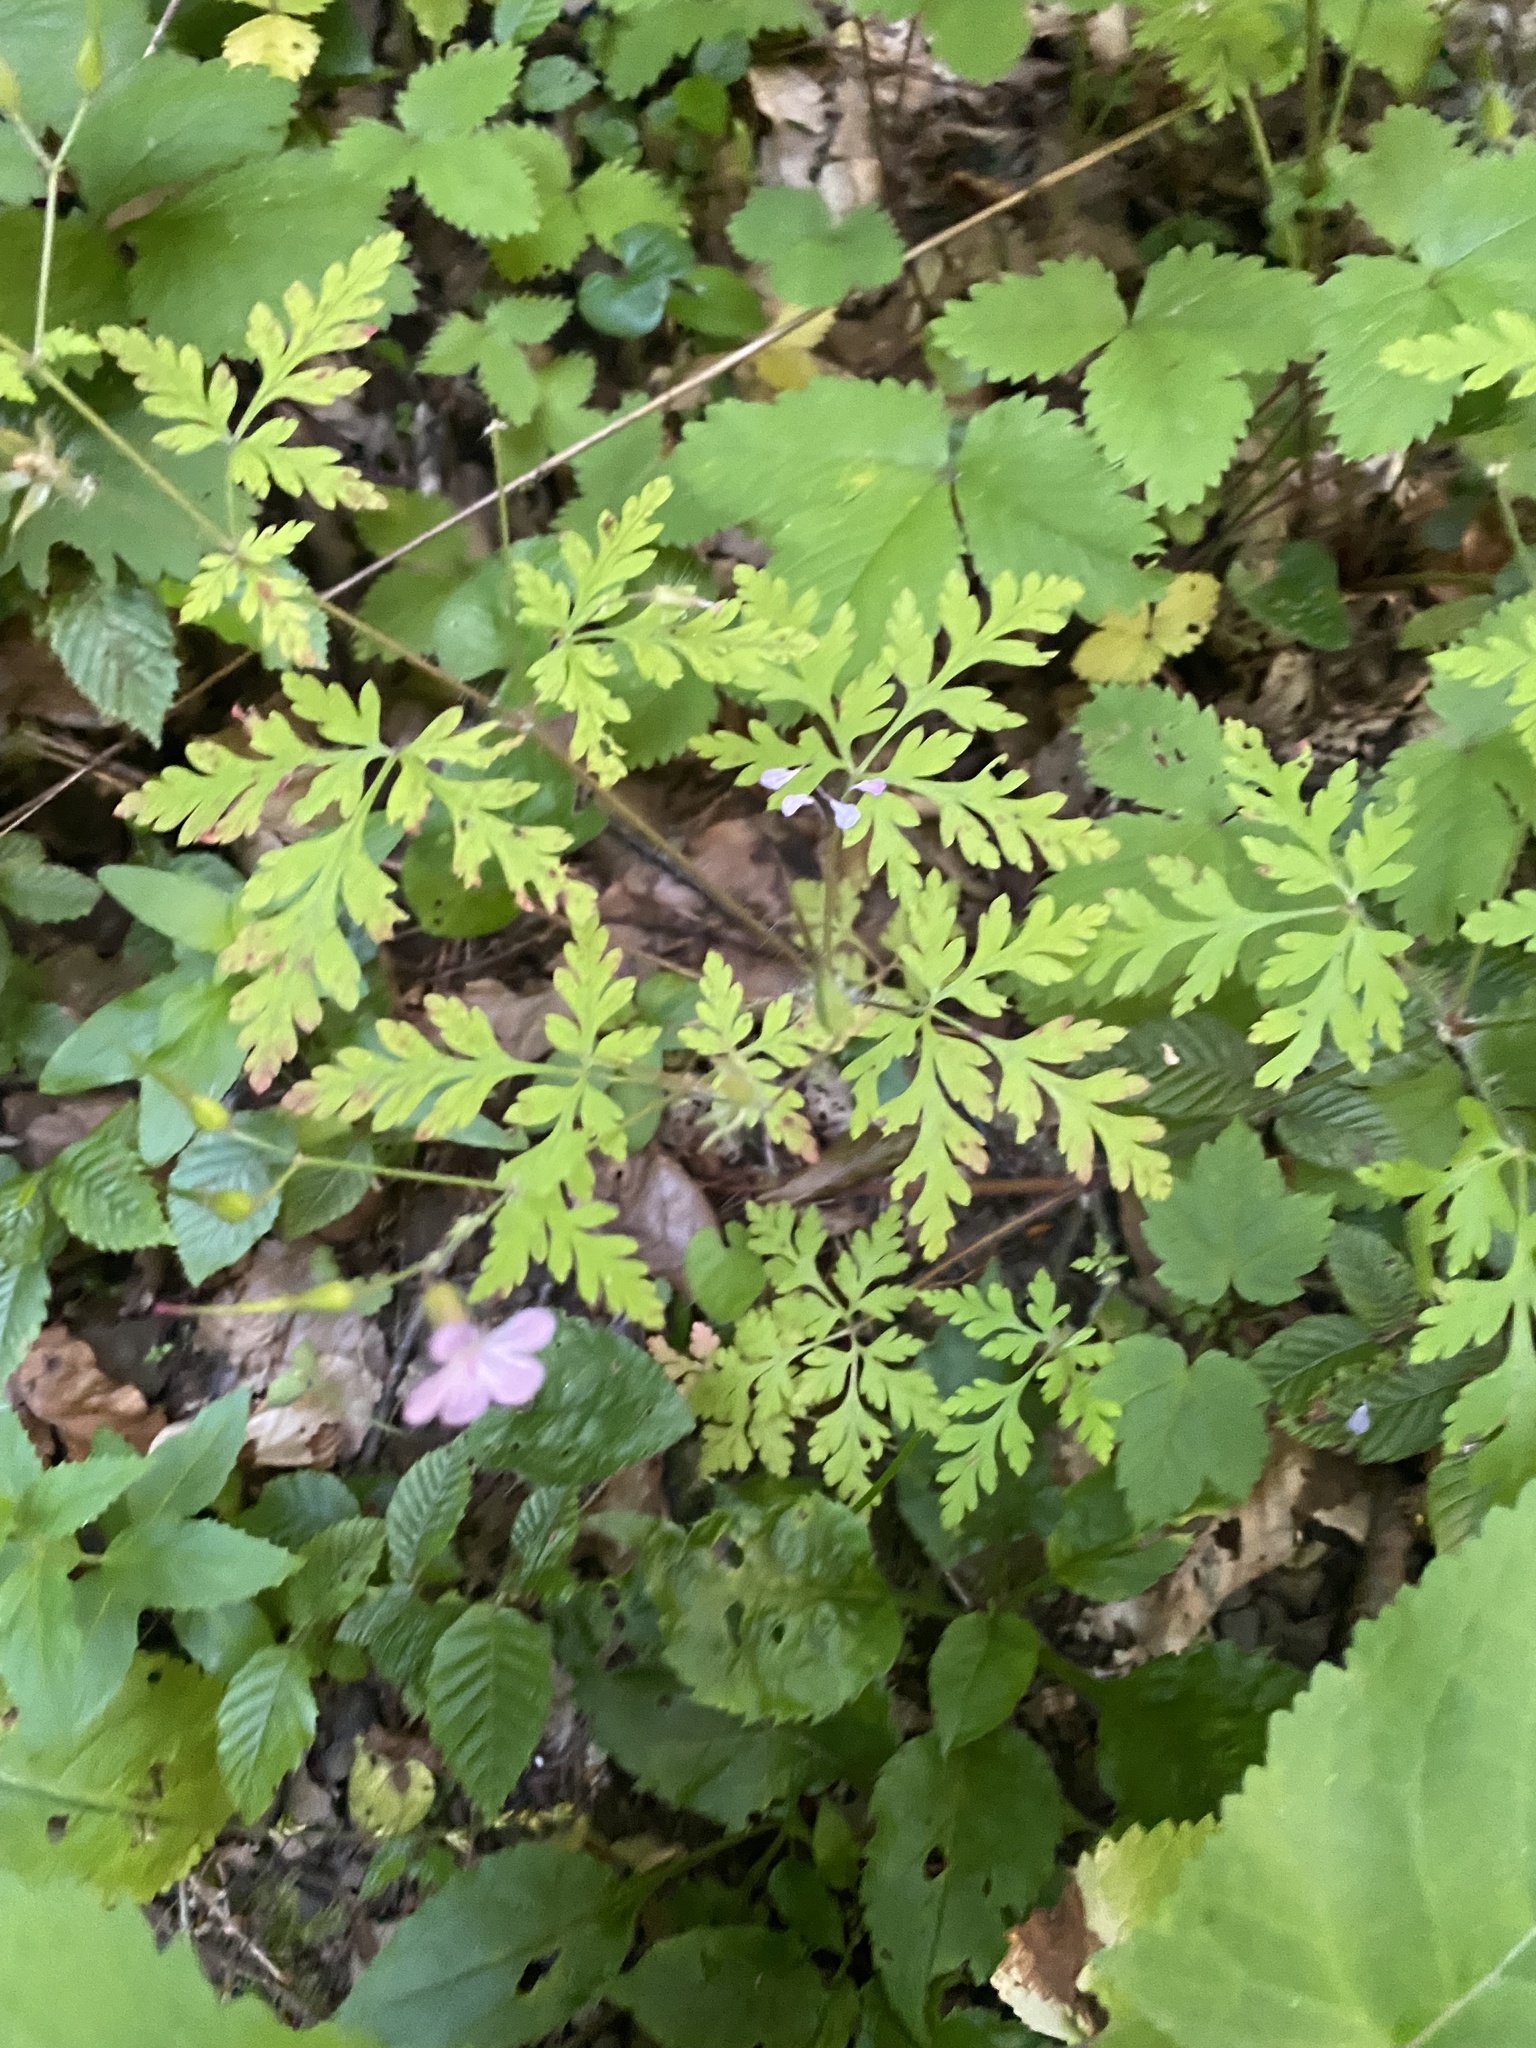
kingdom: Plantae
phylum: Tracheophyta
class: Magnoliopsida
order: Geraniales
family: Geraniaceae
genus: Geranium
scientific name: Geranium robertianum
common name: Herb-robert
